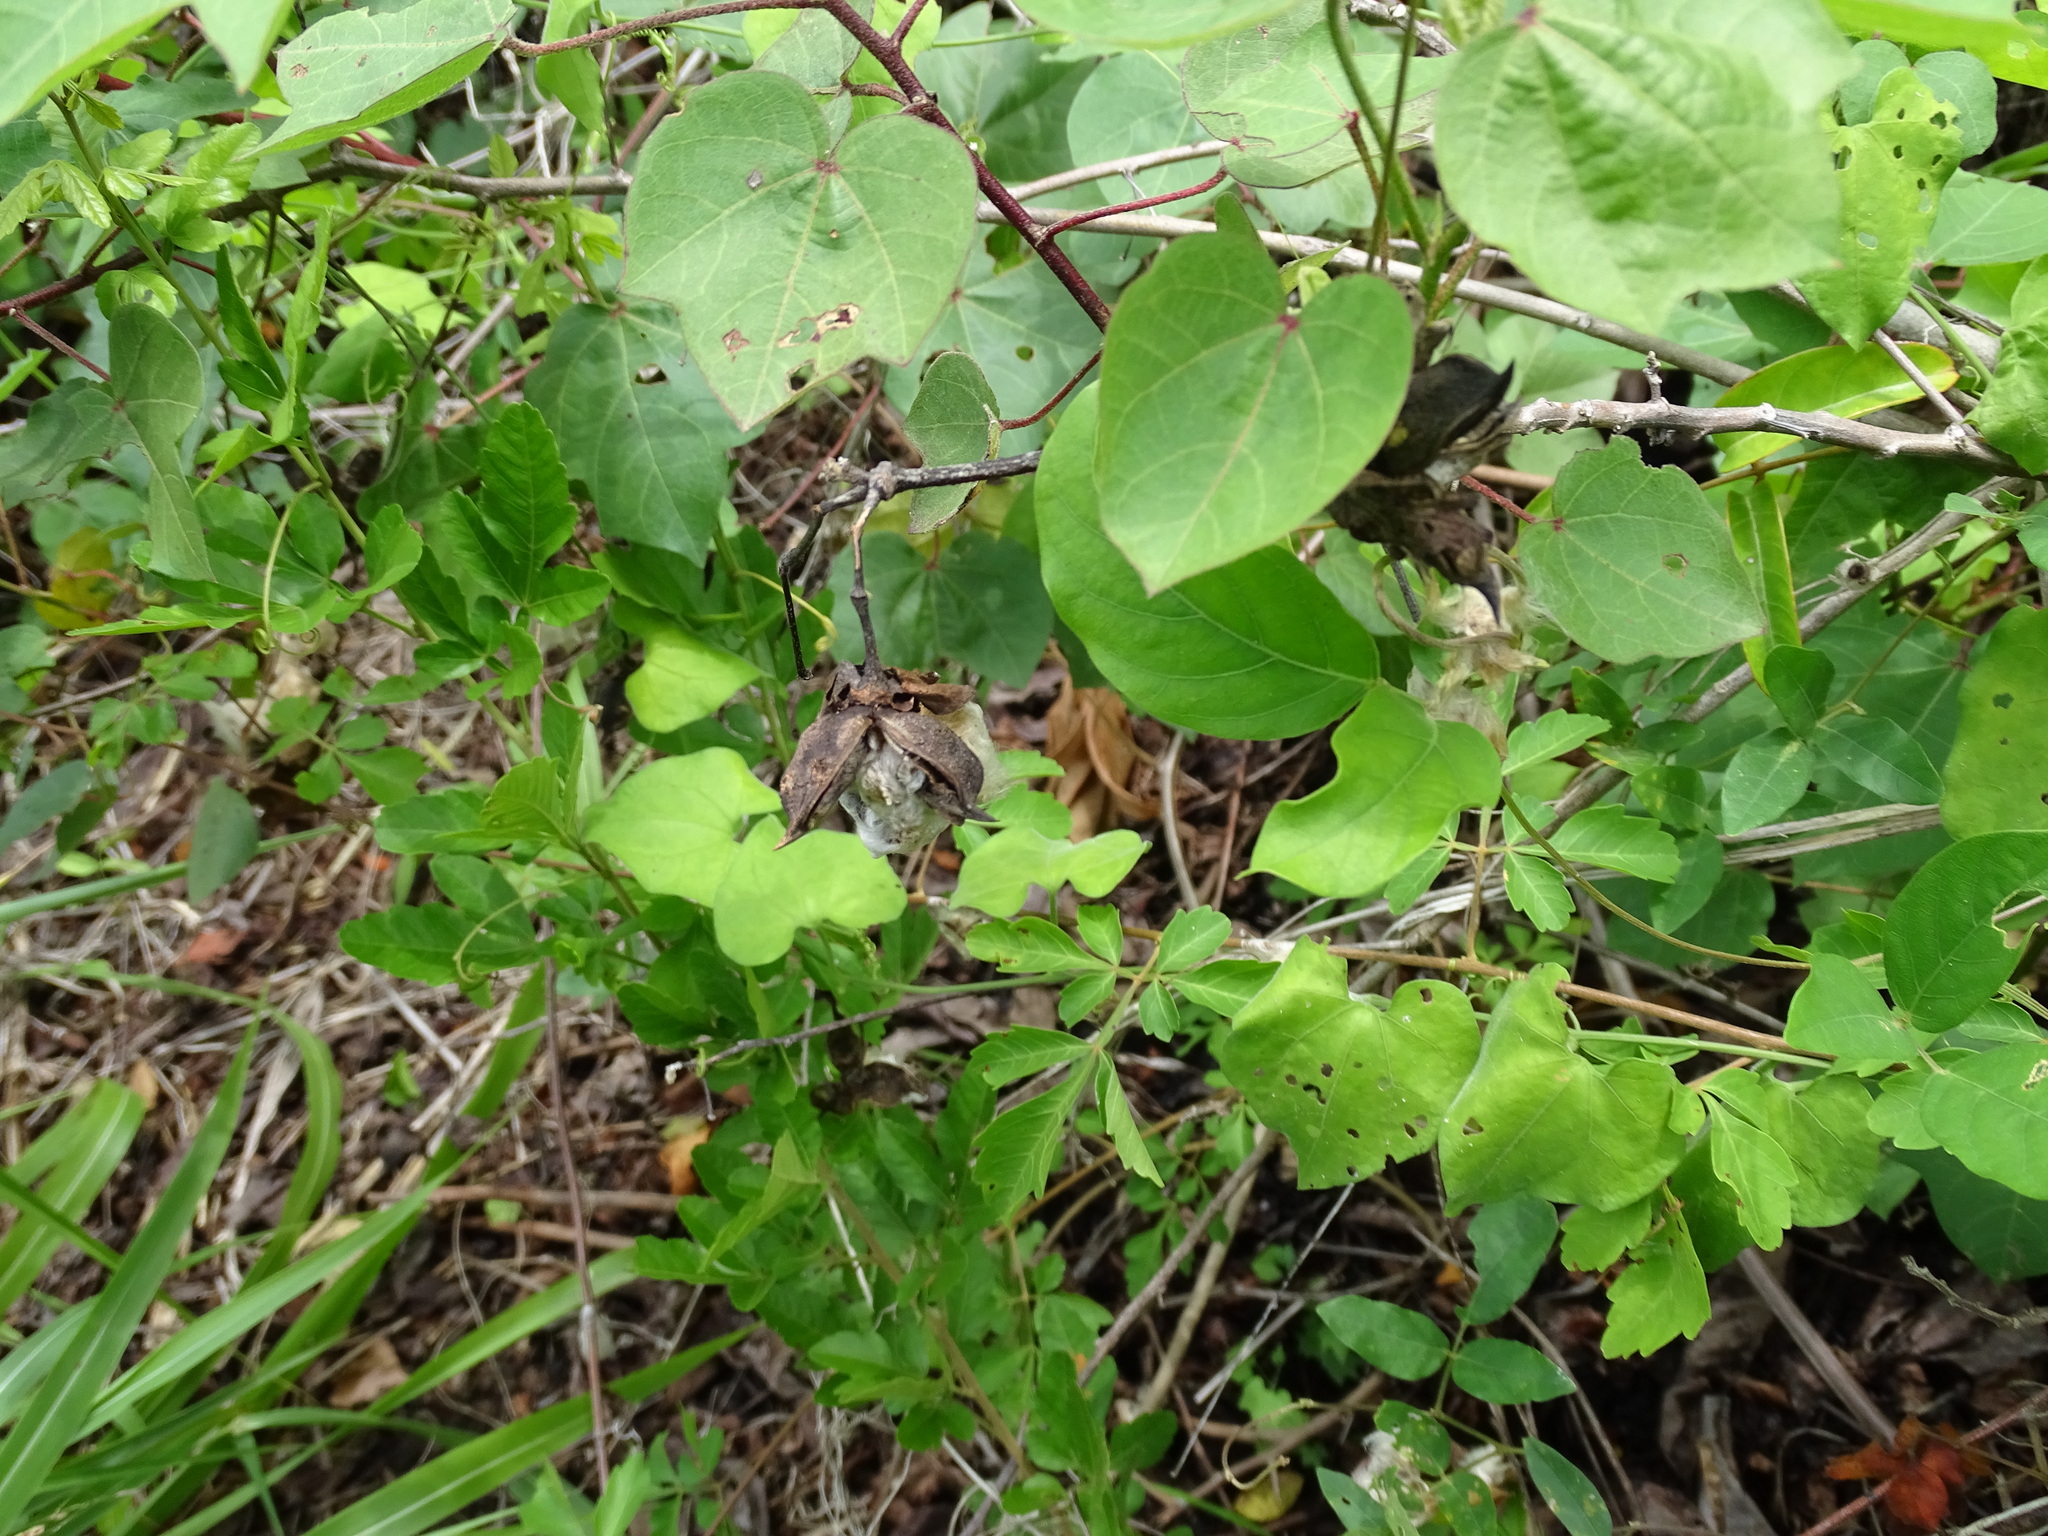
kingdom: Plantae
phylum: Tracheophyta
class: Magnoliopsida
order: Malvales
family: Malvaceae
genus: Gossypium
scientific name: Gossypium hirsutum
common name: Cotton
